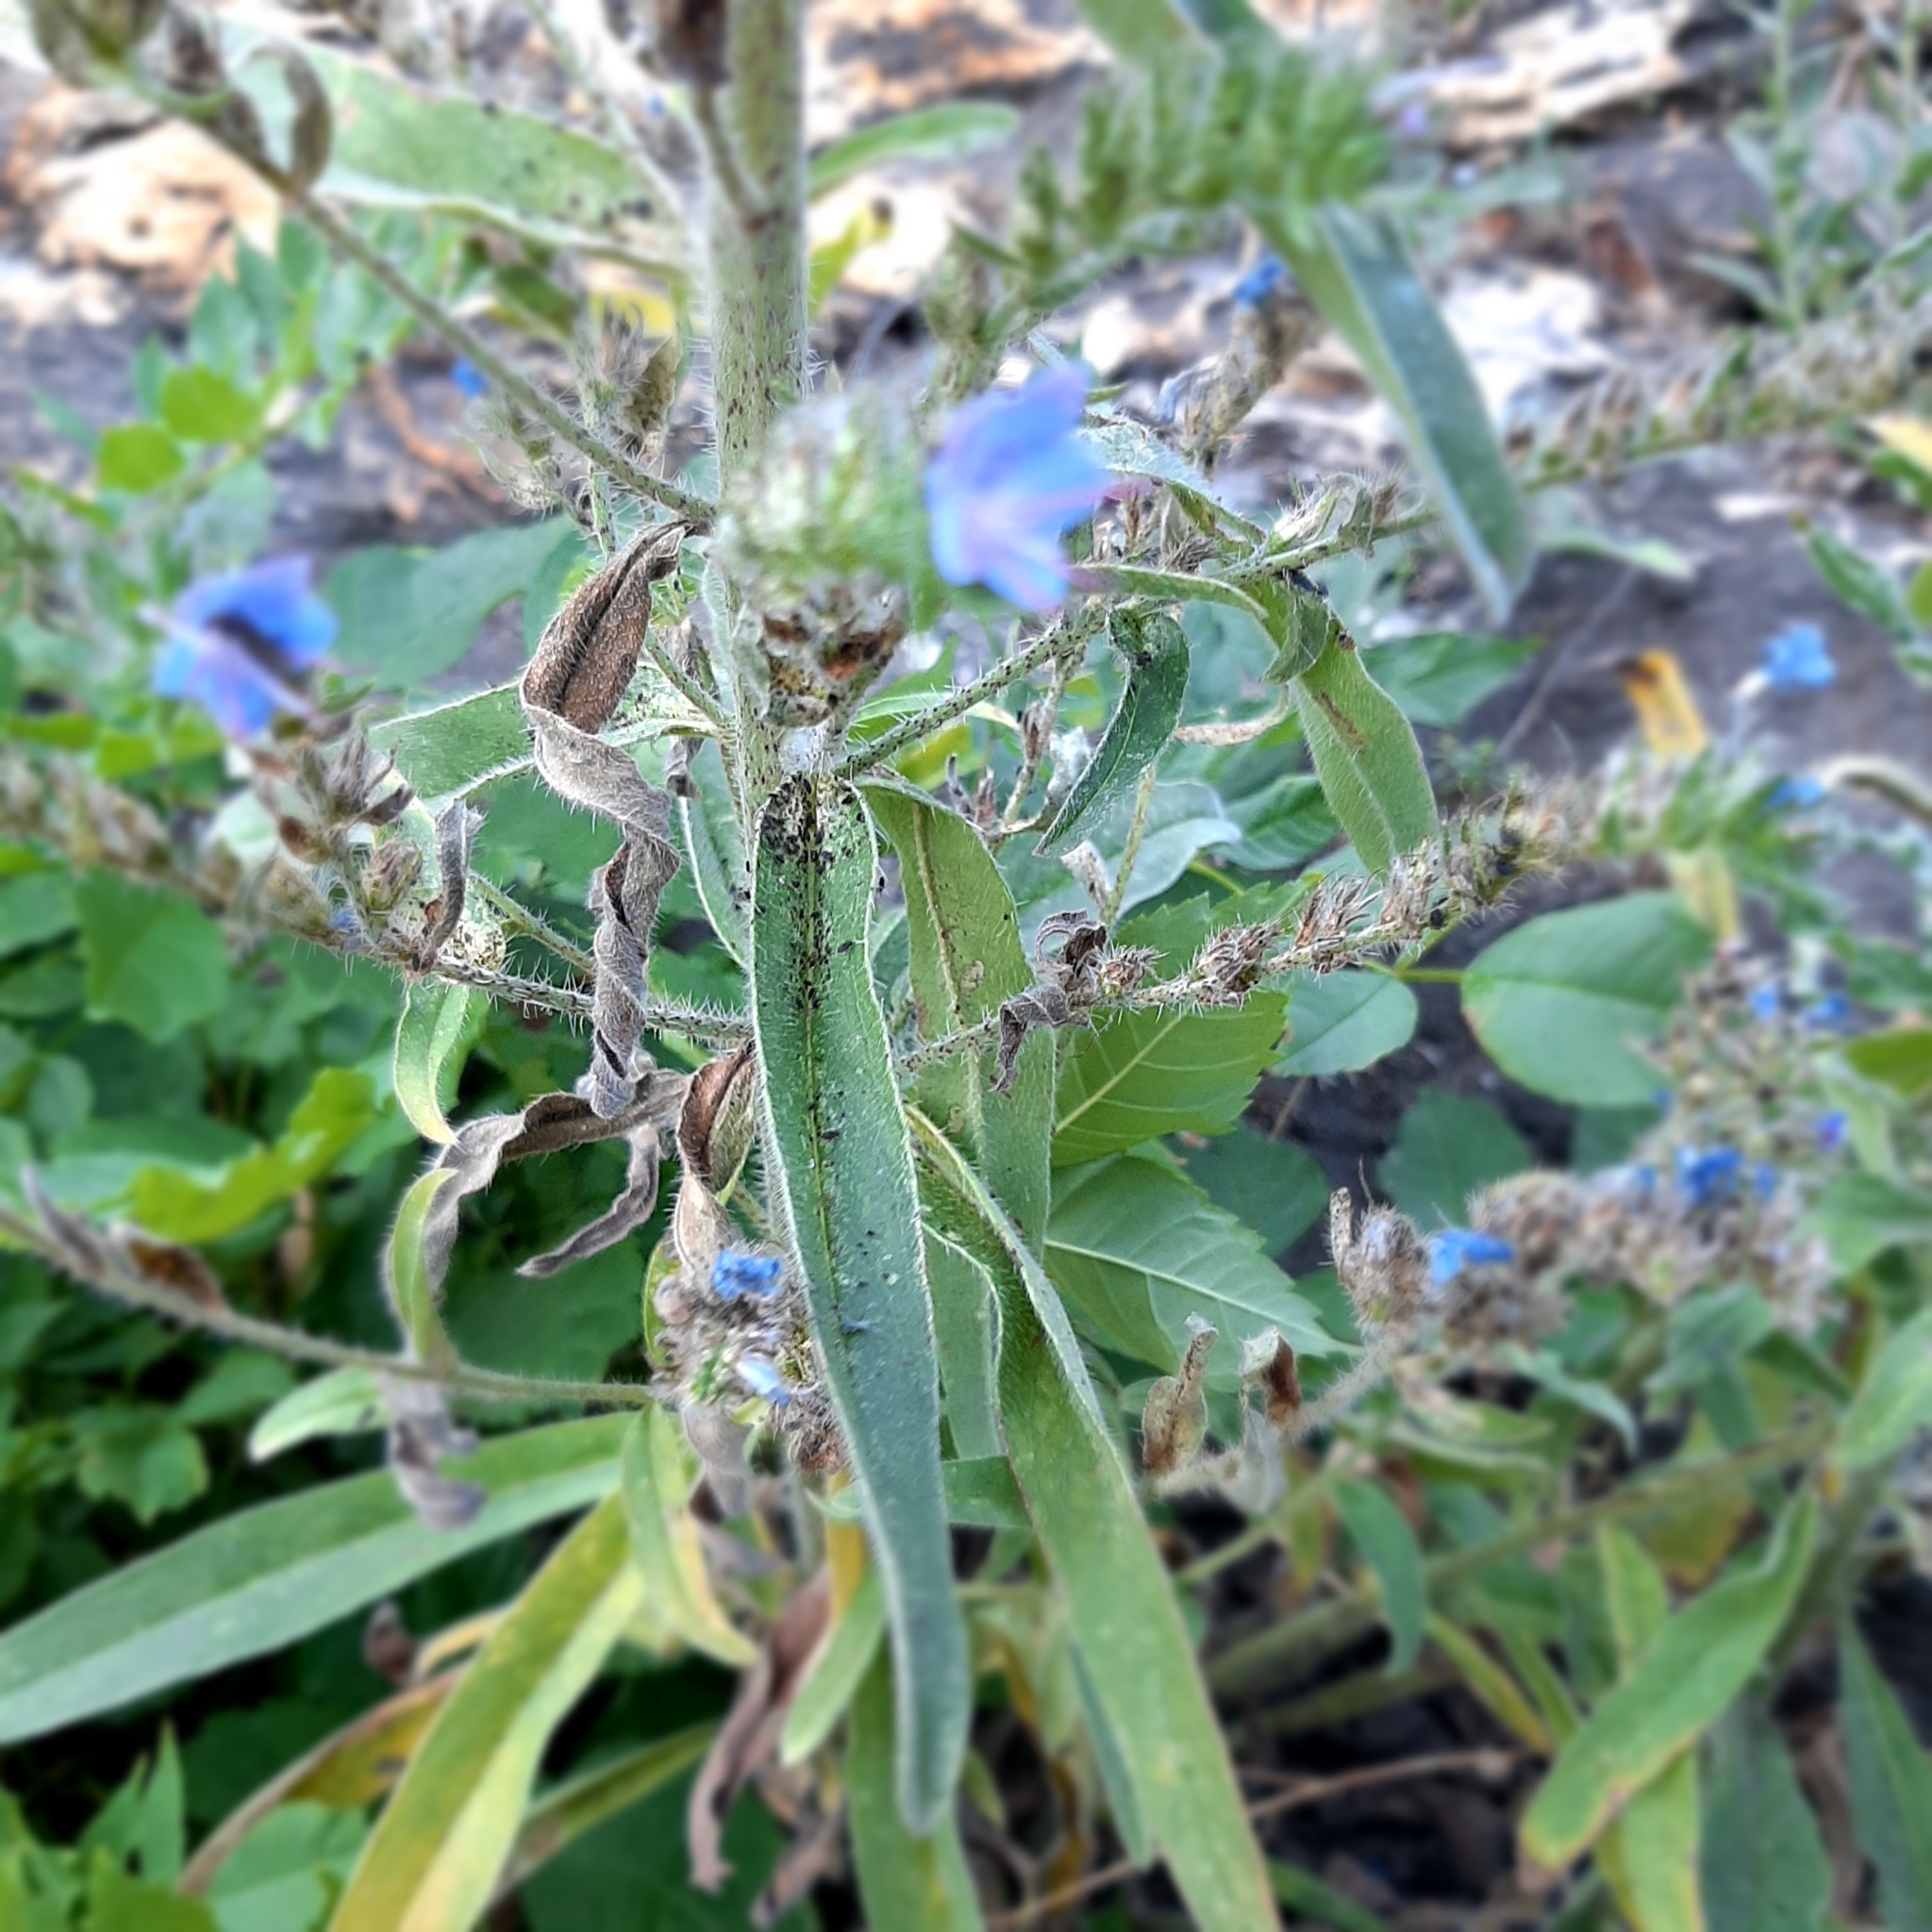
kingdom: Plantae
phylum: Tracheophyta
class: Magnoliopsida
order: Boraginales
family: Boraginaceae
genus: Echium
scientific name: Echium vulgare
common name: Common viper's bugloss
